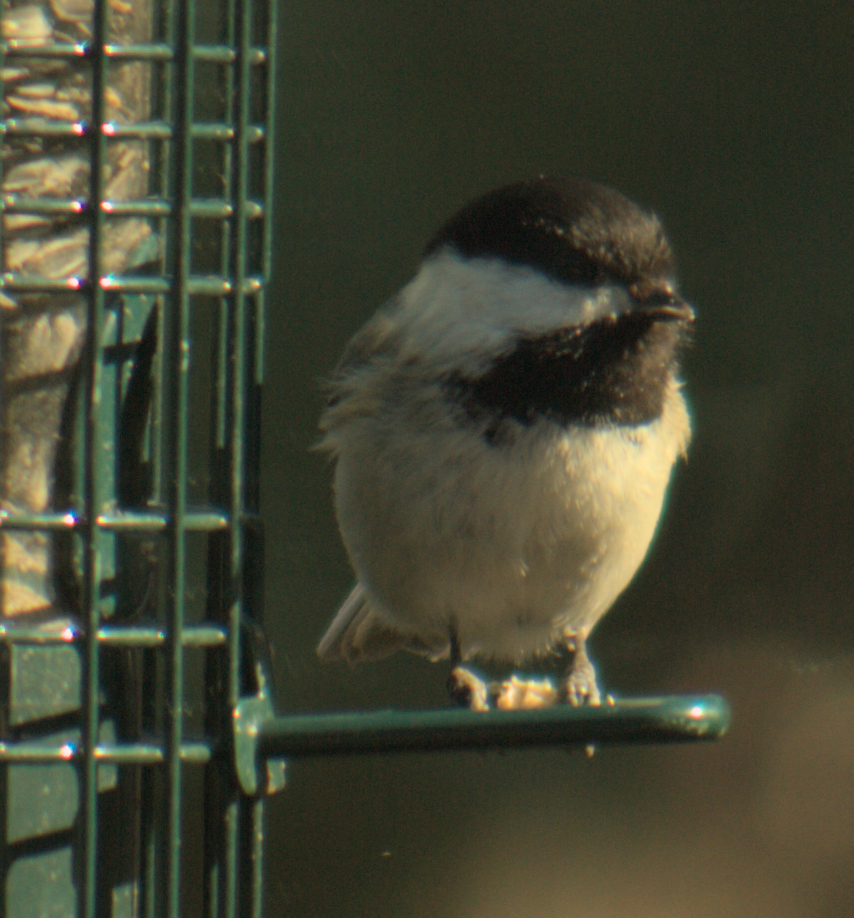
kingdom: Animalia
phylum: Chordata
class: Aves
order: Passeriformes
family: Paridae
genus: Poecile
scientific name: Poecile atricapillus
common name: Black-capped chickadee
